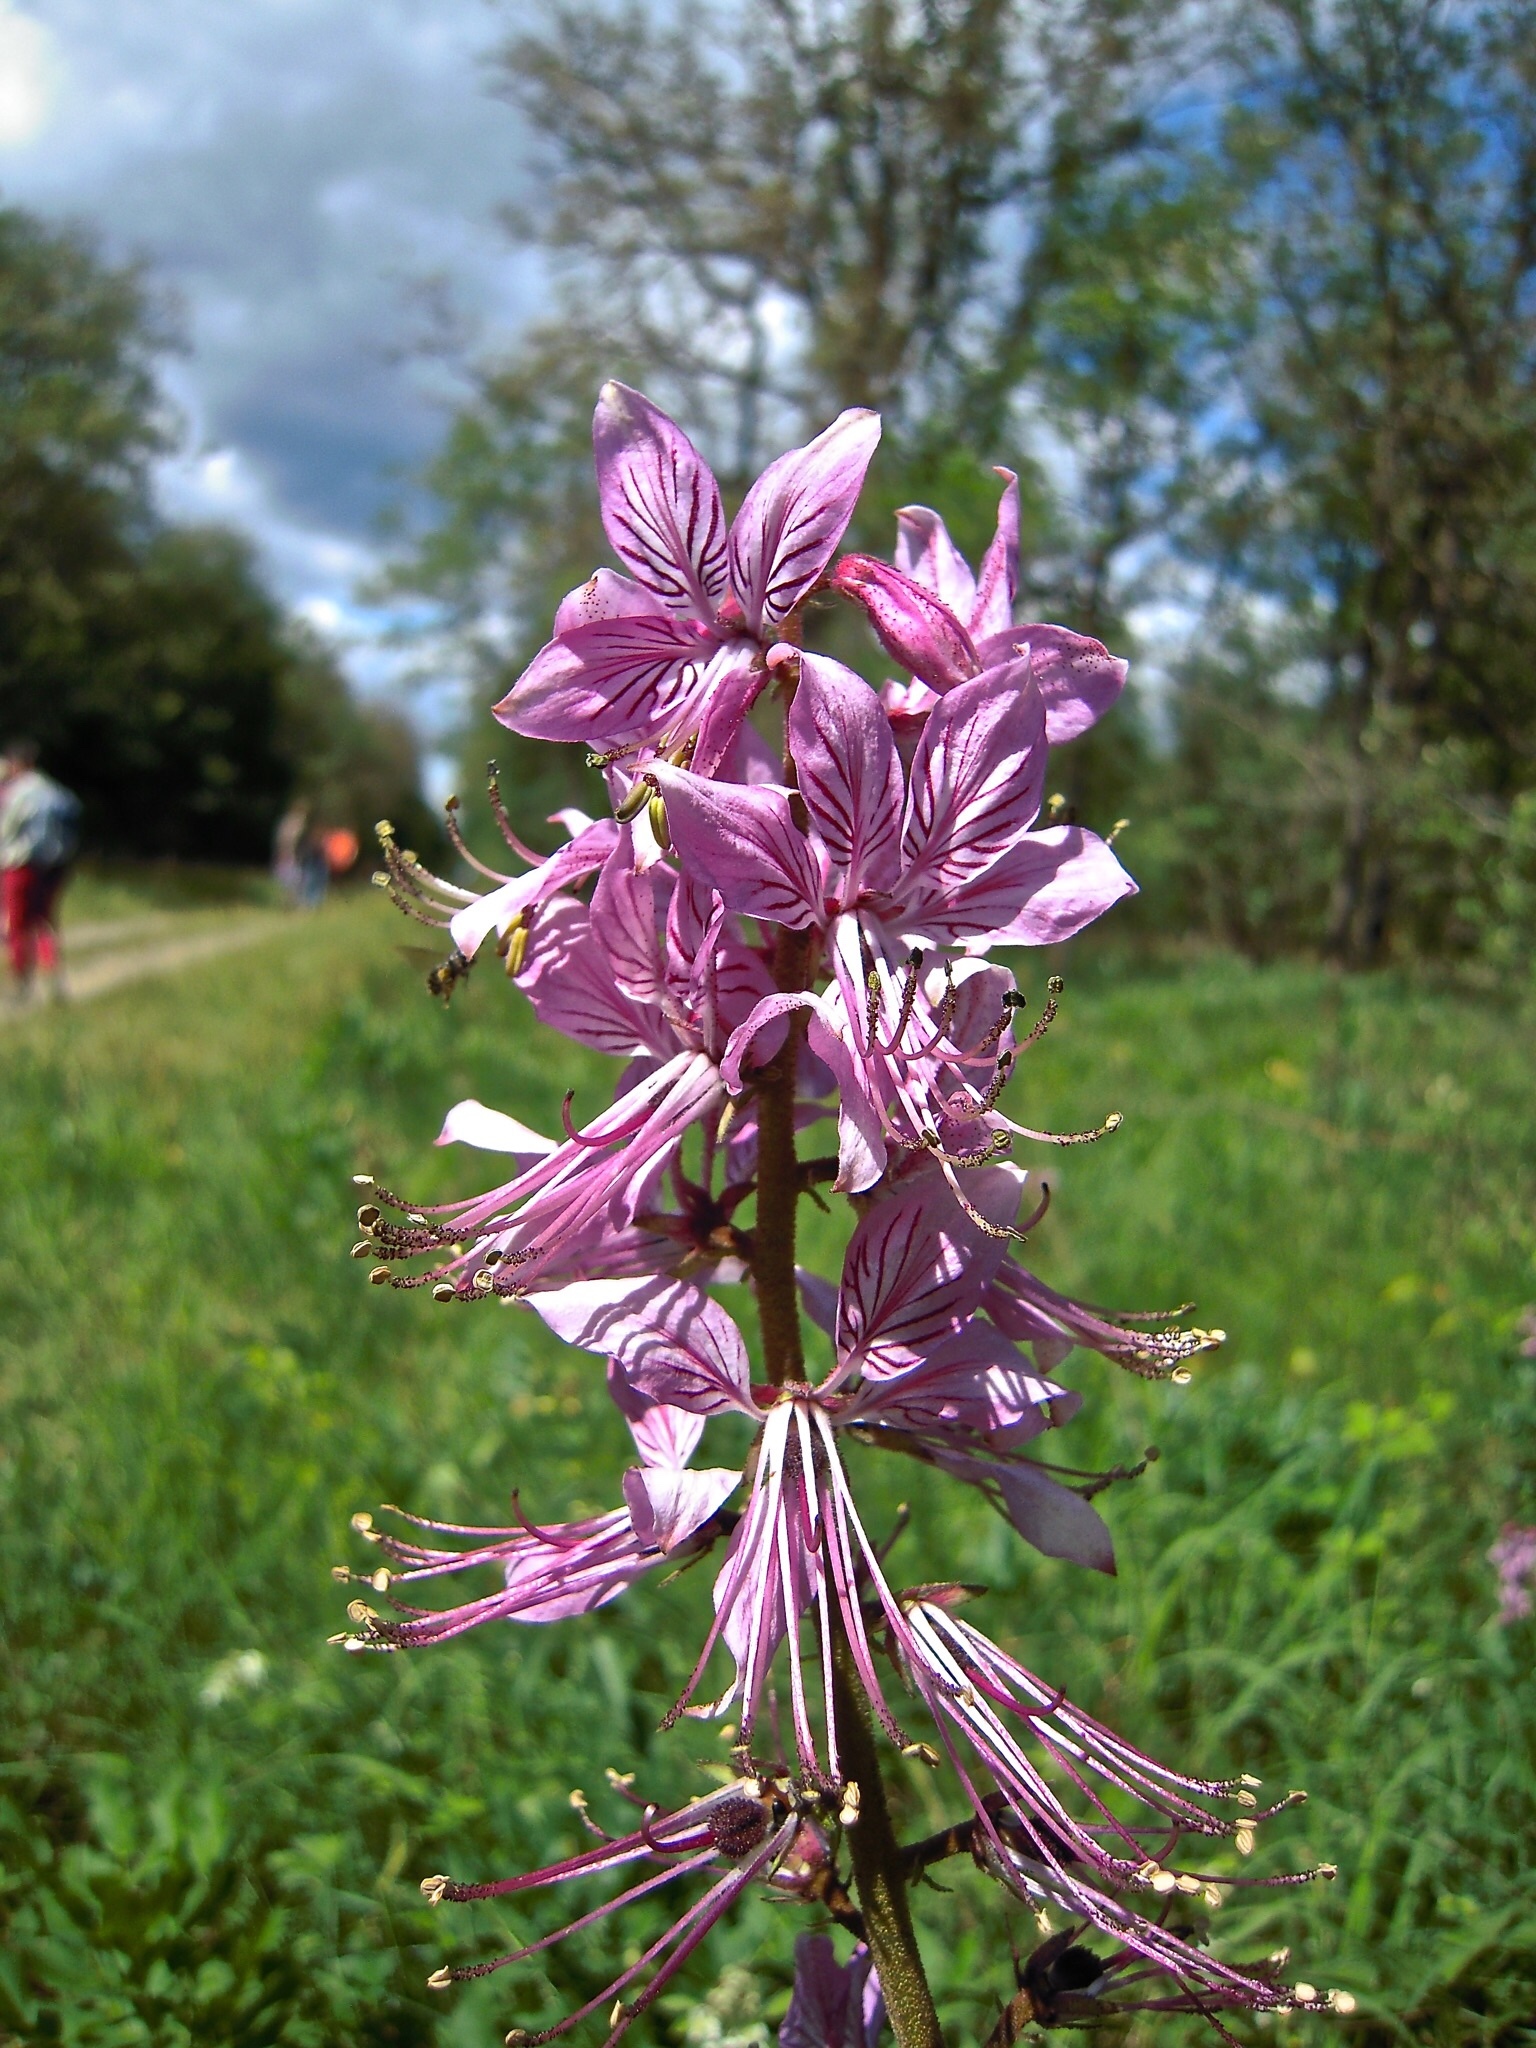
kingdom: Plantae
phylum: Tracheophyta
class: Magnoliopsida
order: Sapindales
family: Rutaceae
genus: Dictamnus
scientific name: Dictamnus albus
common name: Gasplant
